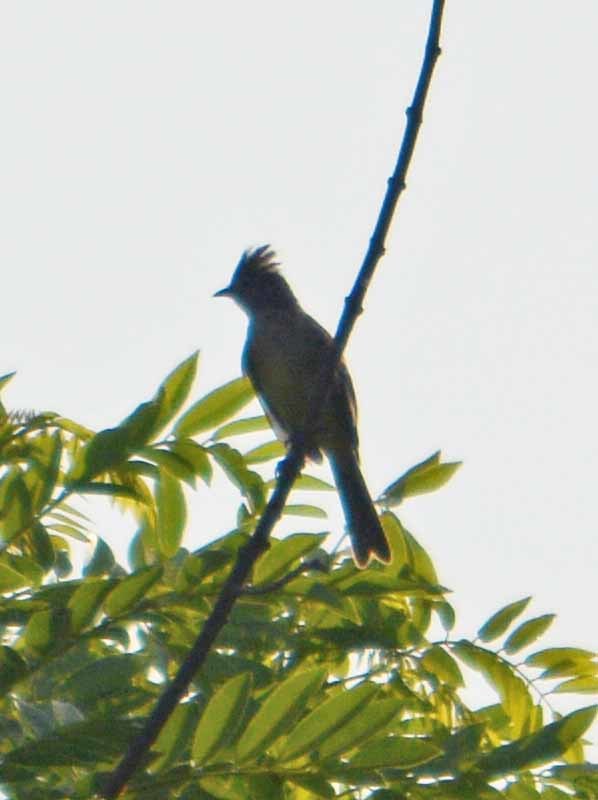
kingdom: Animalia
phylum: Chordata
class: Aves
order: Passeriformes
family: Tyrannidae
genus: Elaenia
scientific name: Elaenia flavogaster
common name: Yellow-bellied elaenia
